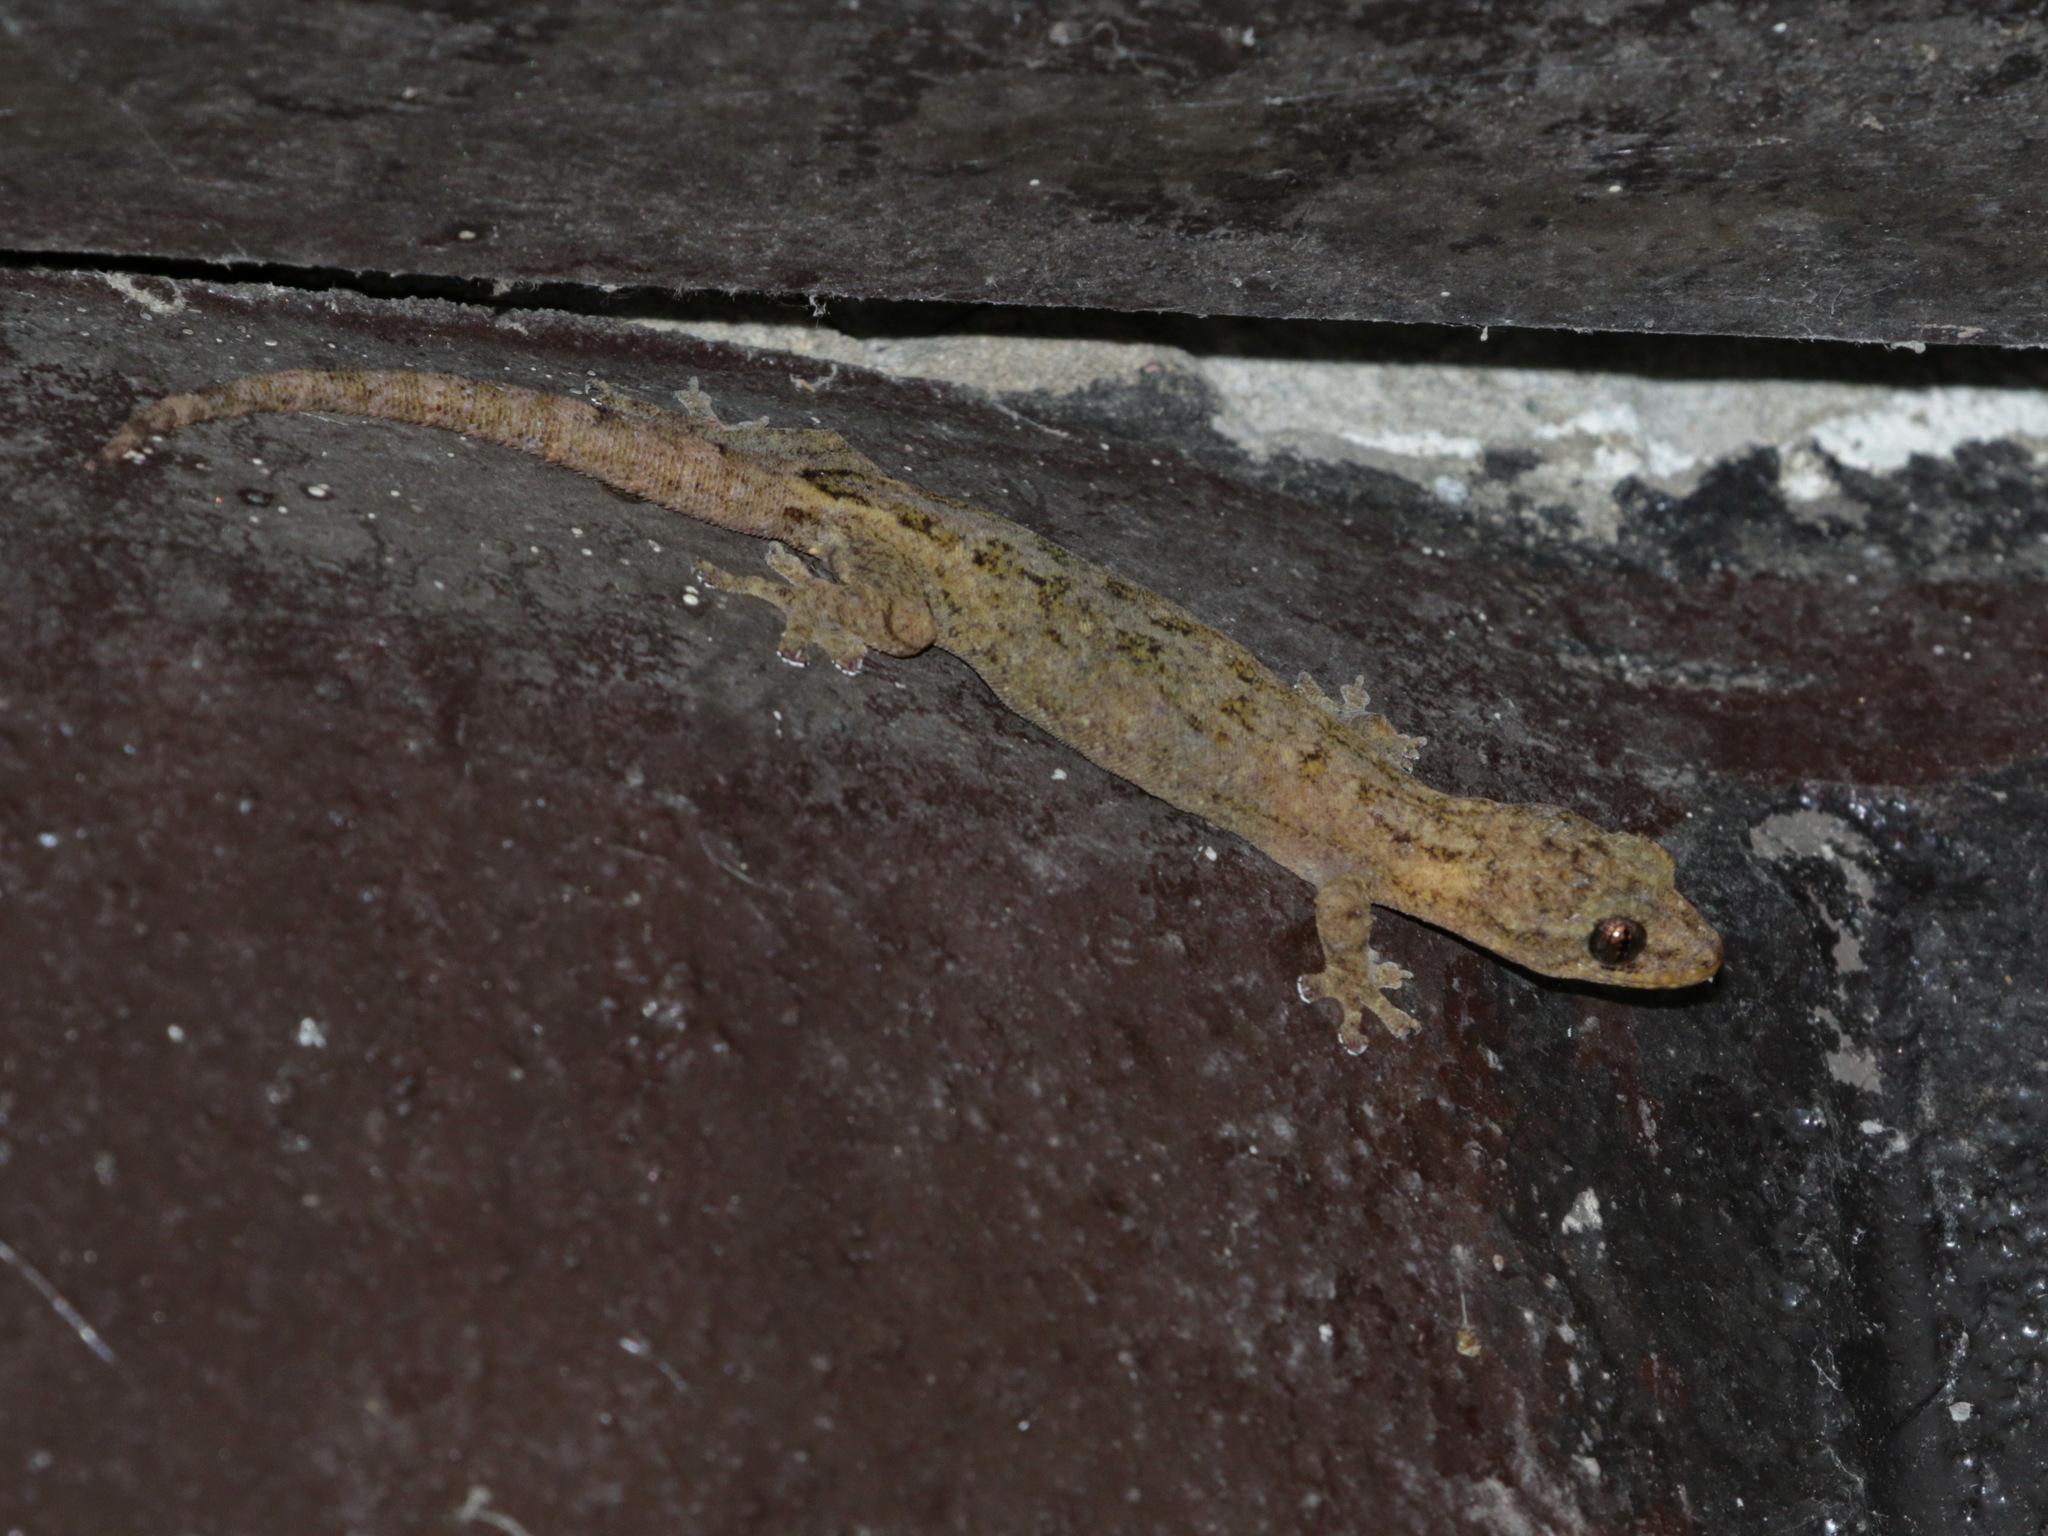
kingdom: Animalia
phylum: Chordata
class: Squamata
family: Gekkonidae
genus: Hemiphyllodactylus
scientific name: Hemiphyllodactylus chiangmaiensis
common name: Chiang mai dwarf gecko
